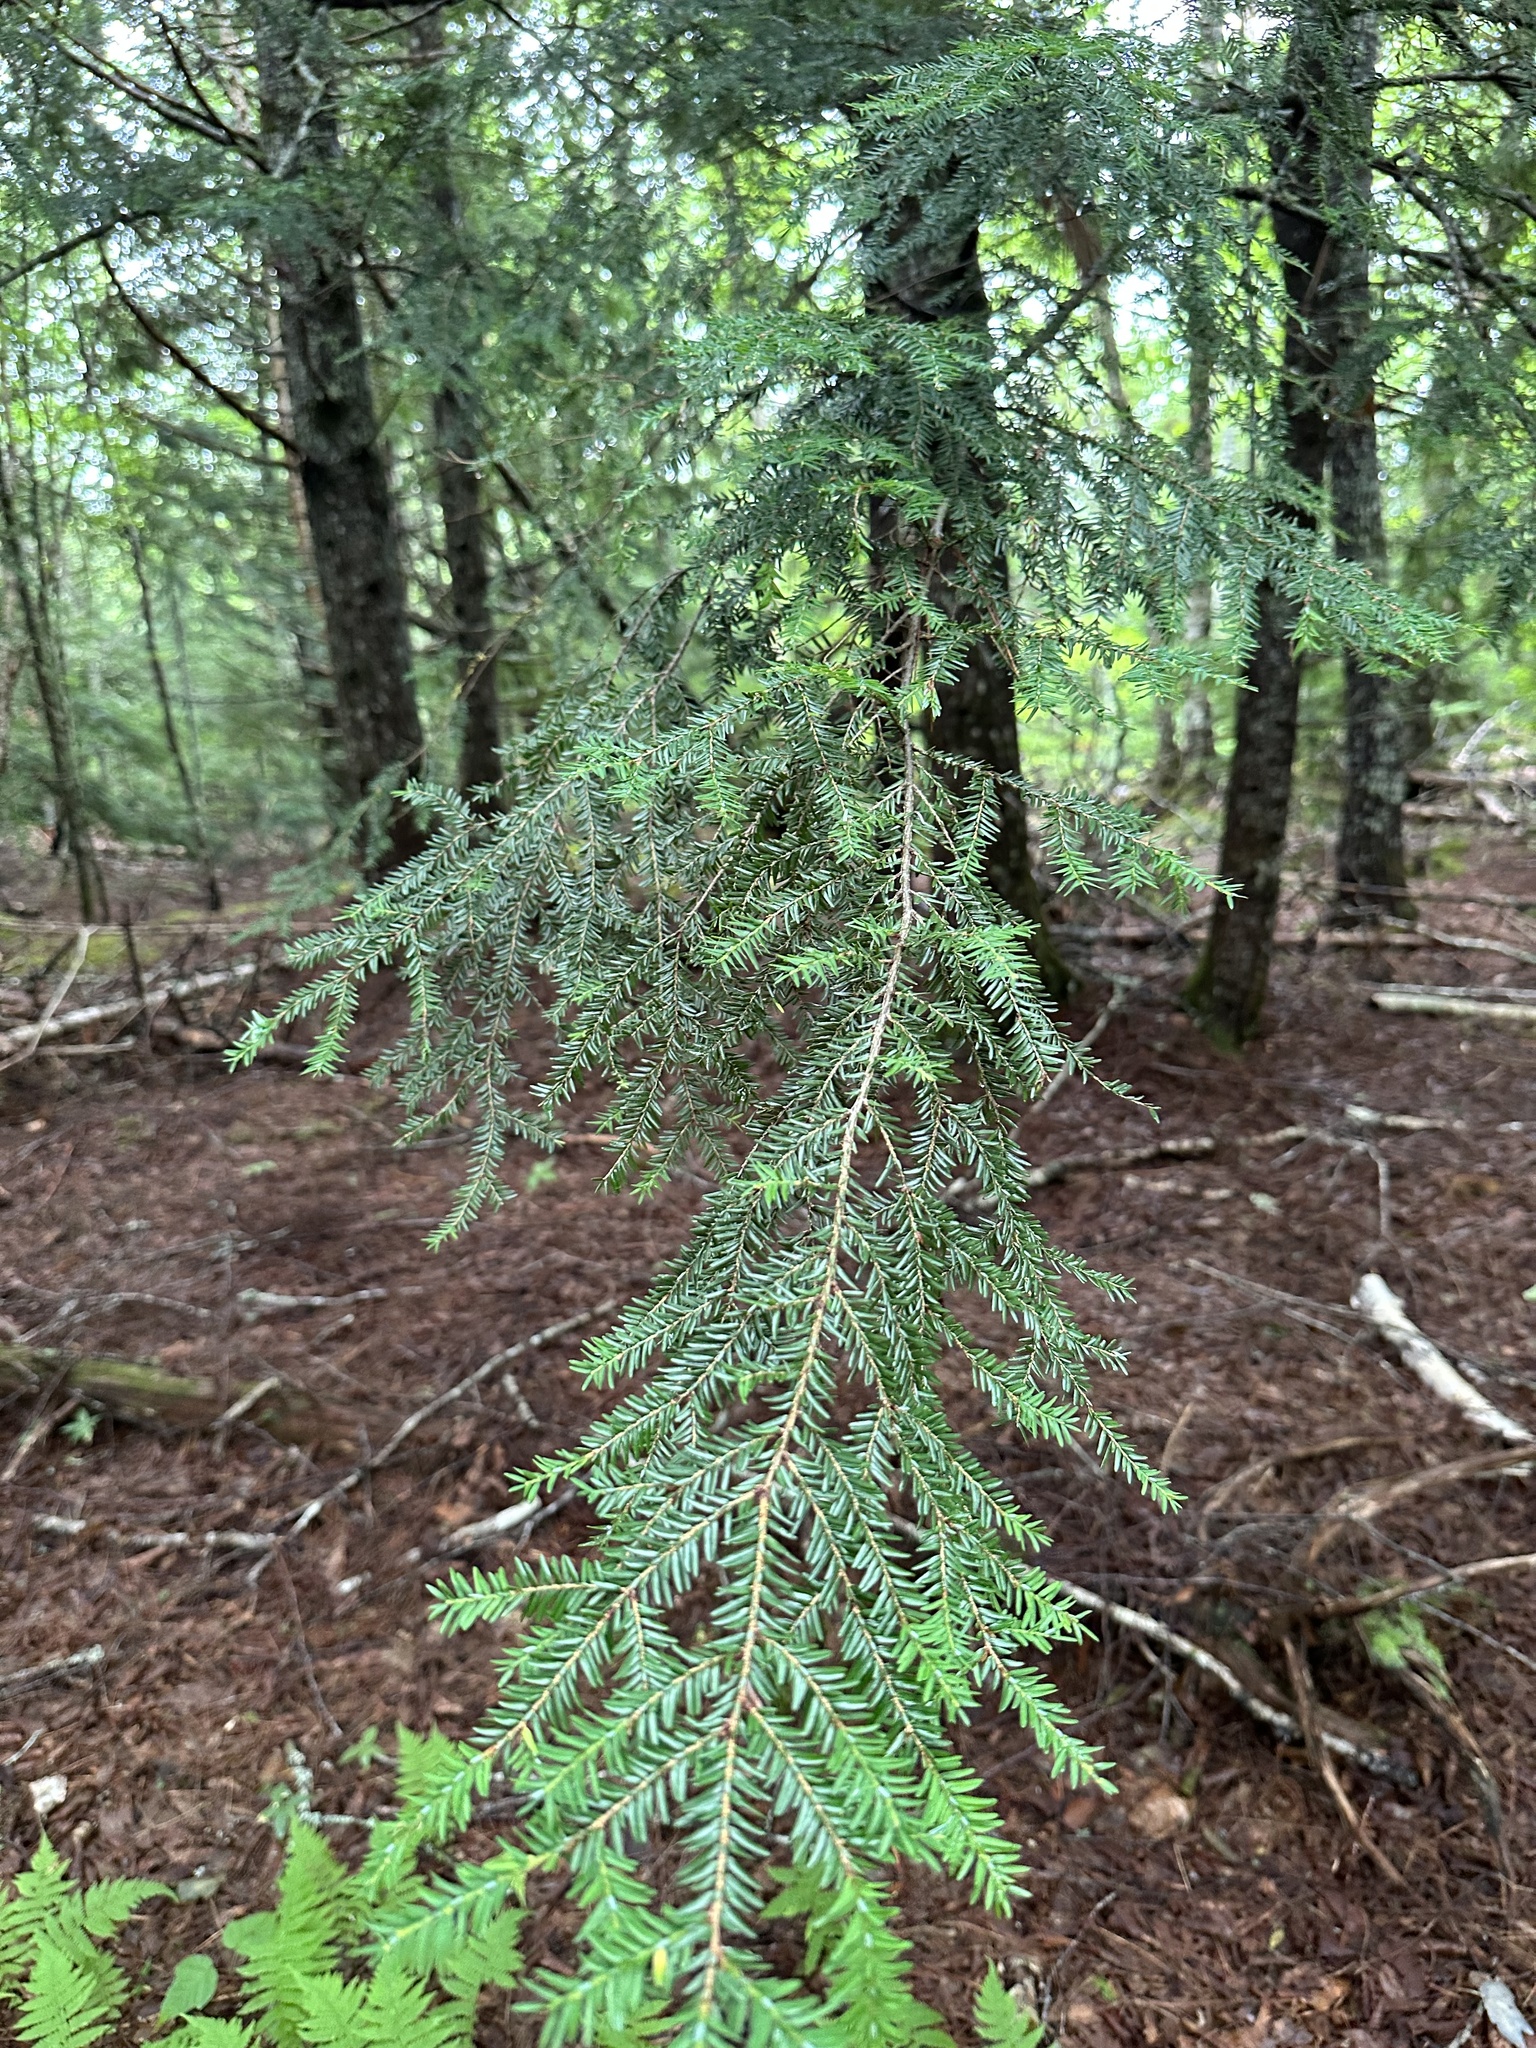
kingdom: Plantae
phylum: Tracheophyta
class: Pinopsida
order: Pinales
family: Pinaceae
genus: Tsuga
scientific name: Tsuga canadensis
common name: Eastern hemlock
